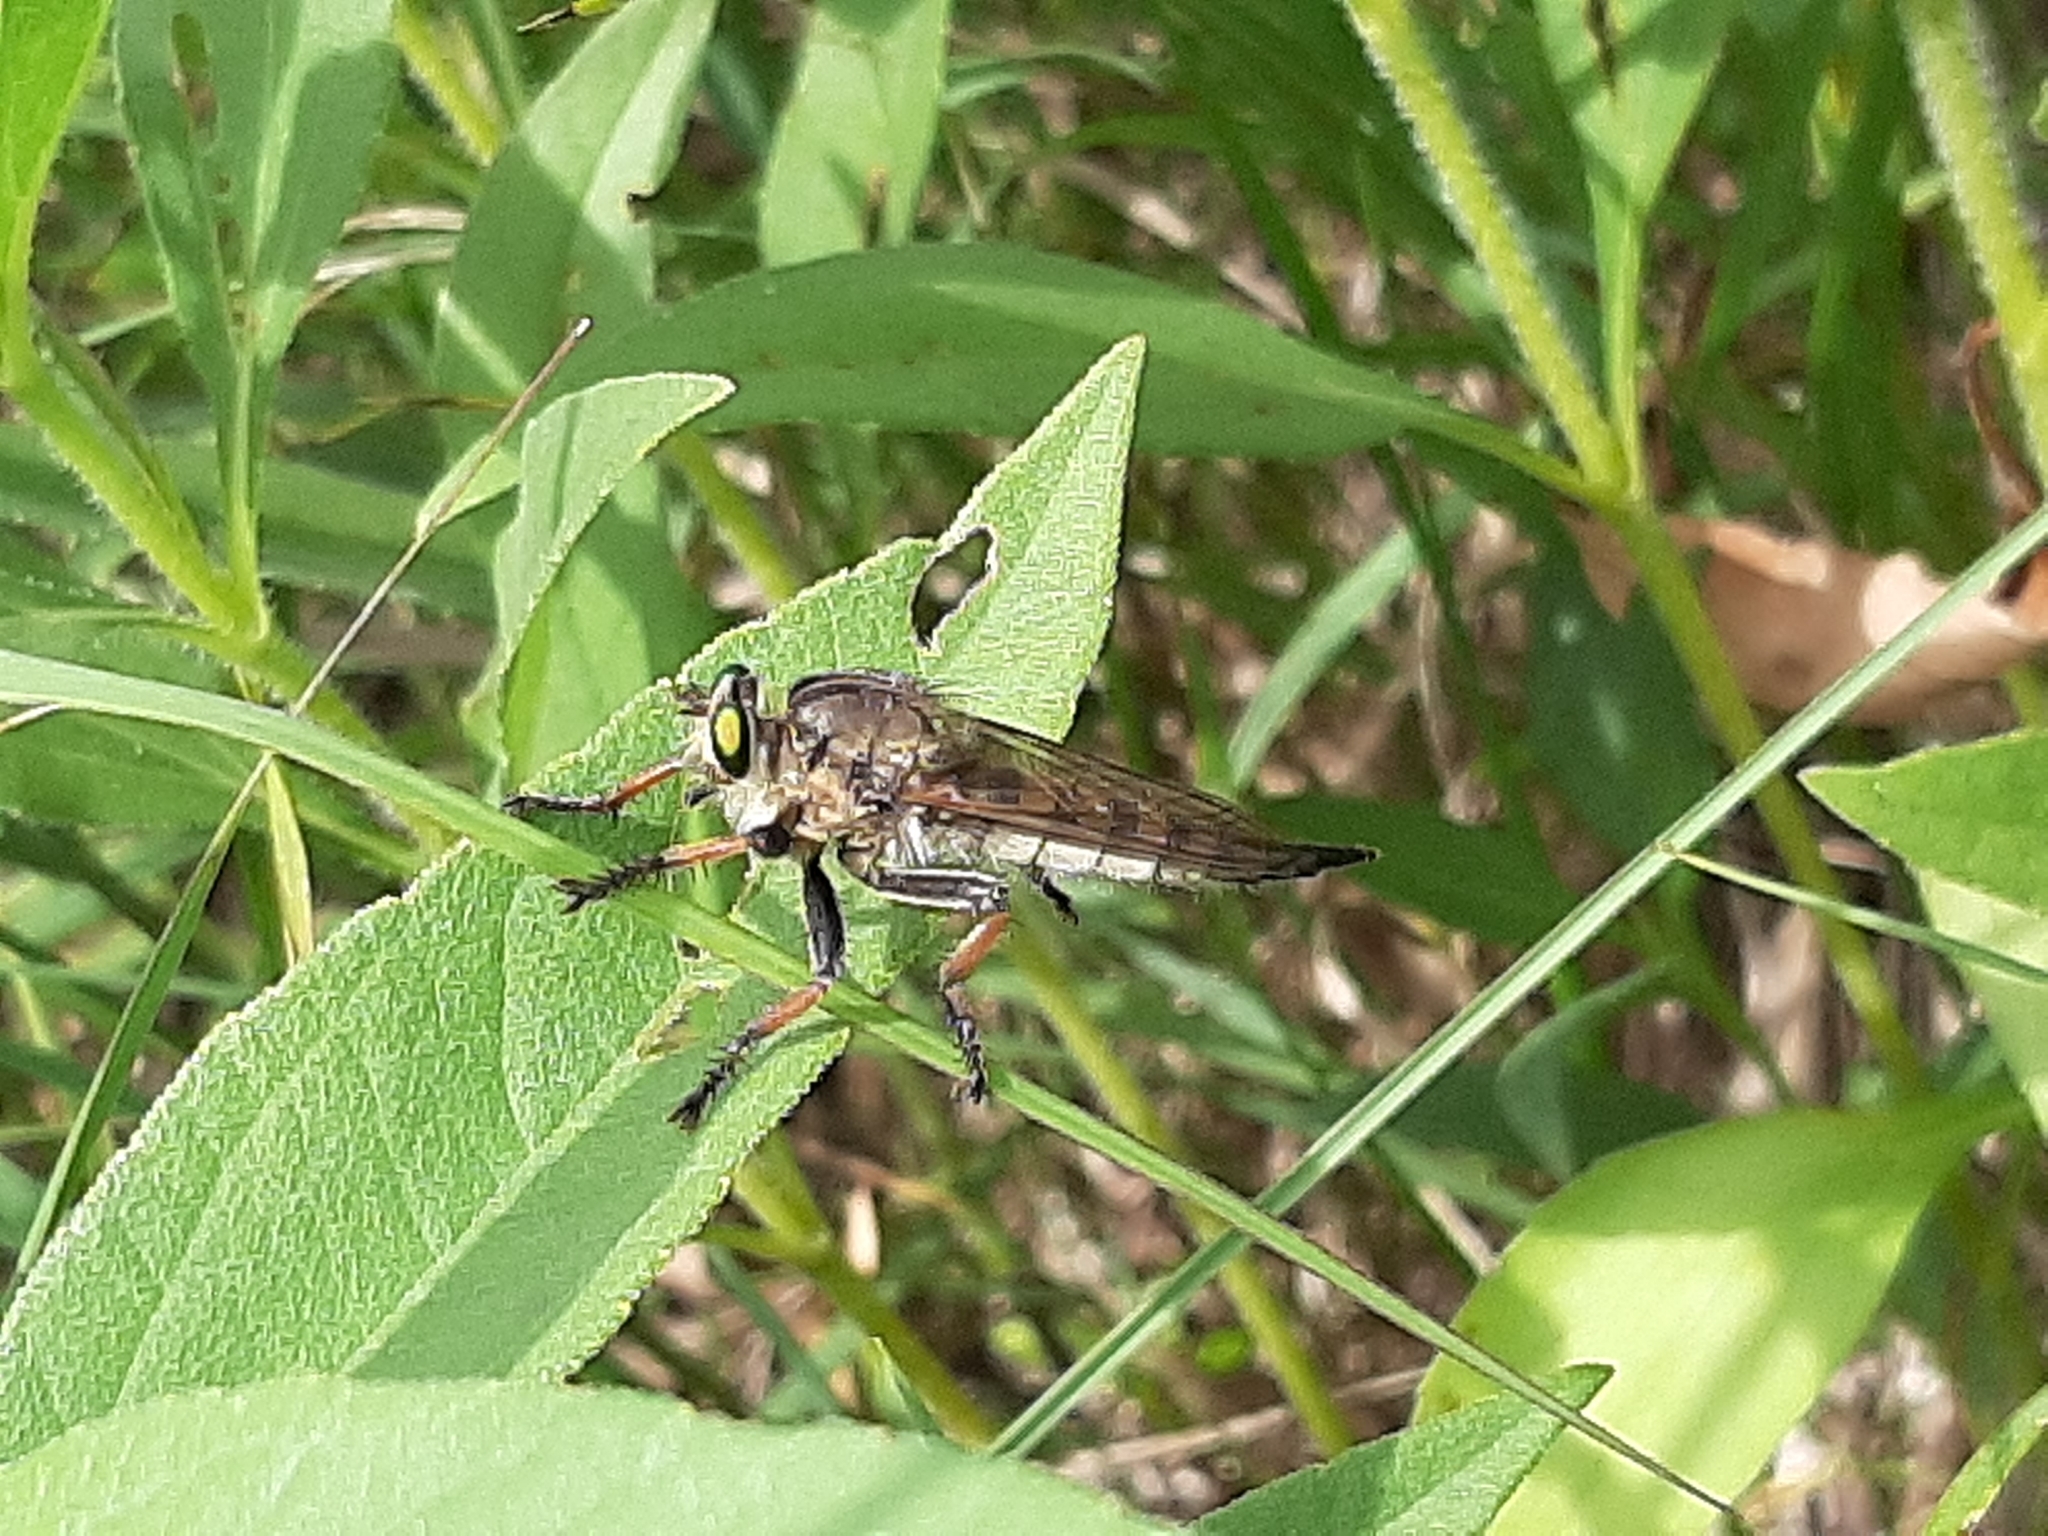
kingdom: Animalia
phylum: Arthropoda
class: Insecta
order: Diptera
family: Asilidae
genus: Promachus
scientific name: Promachus vertebratus
